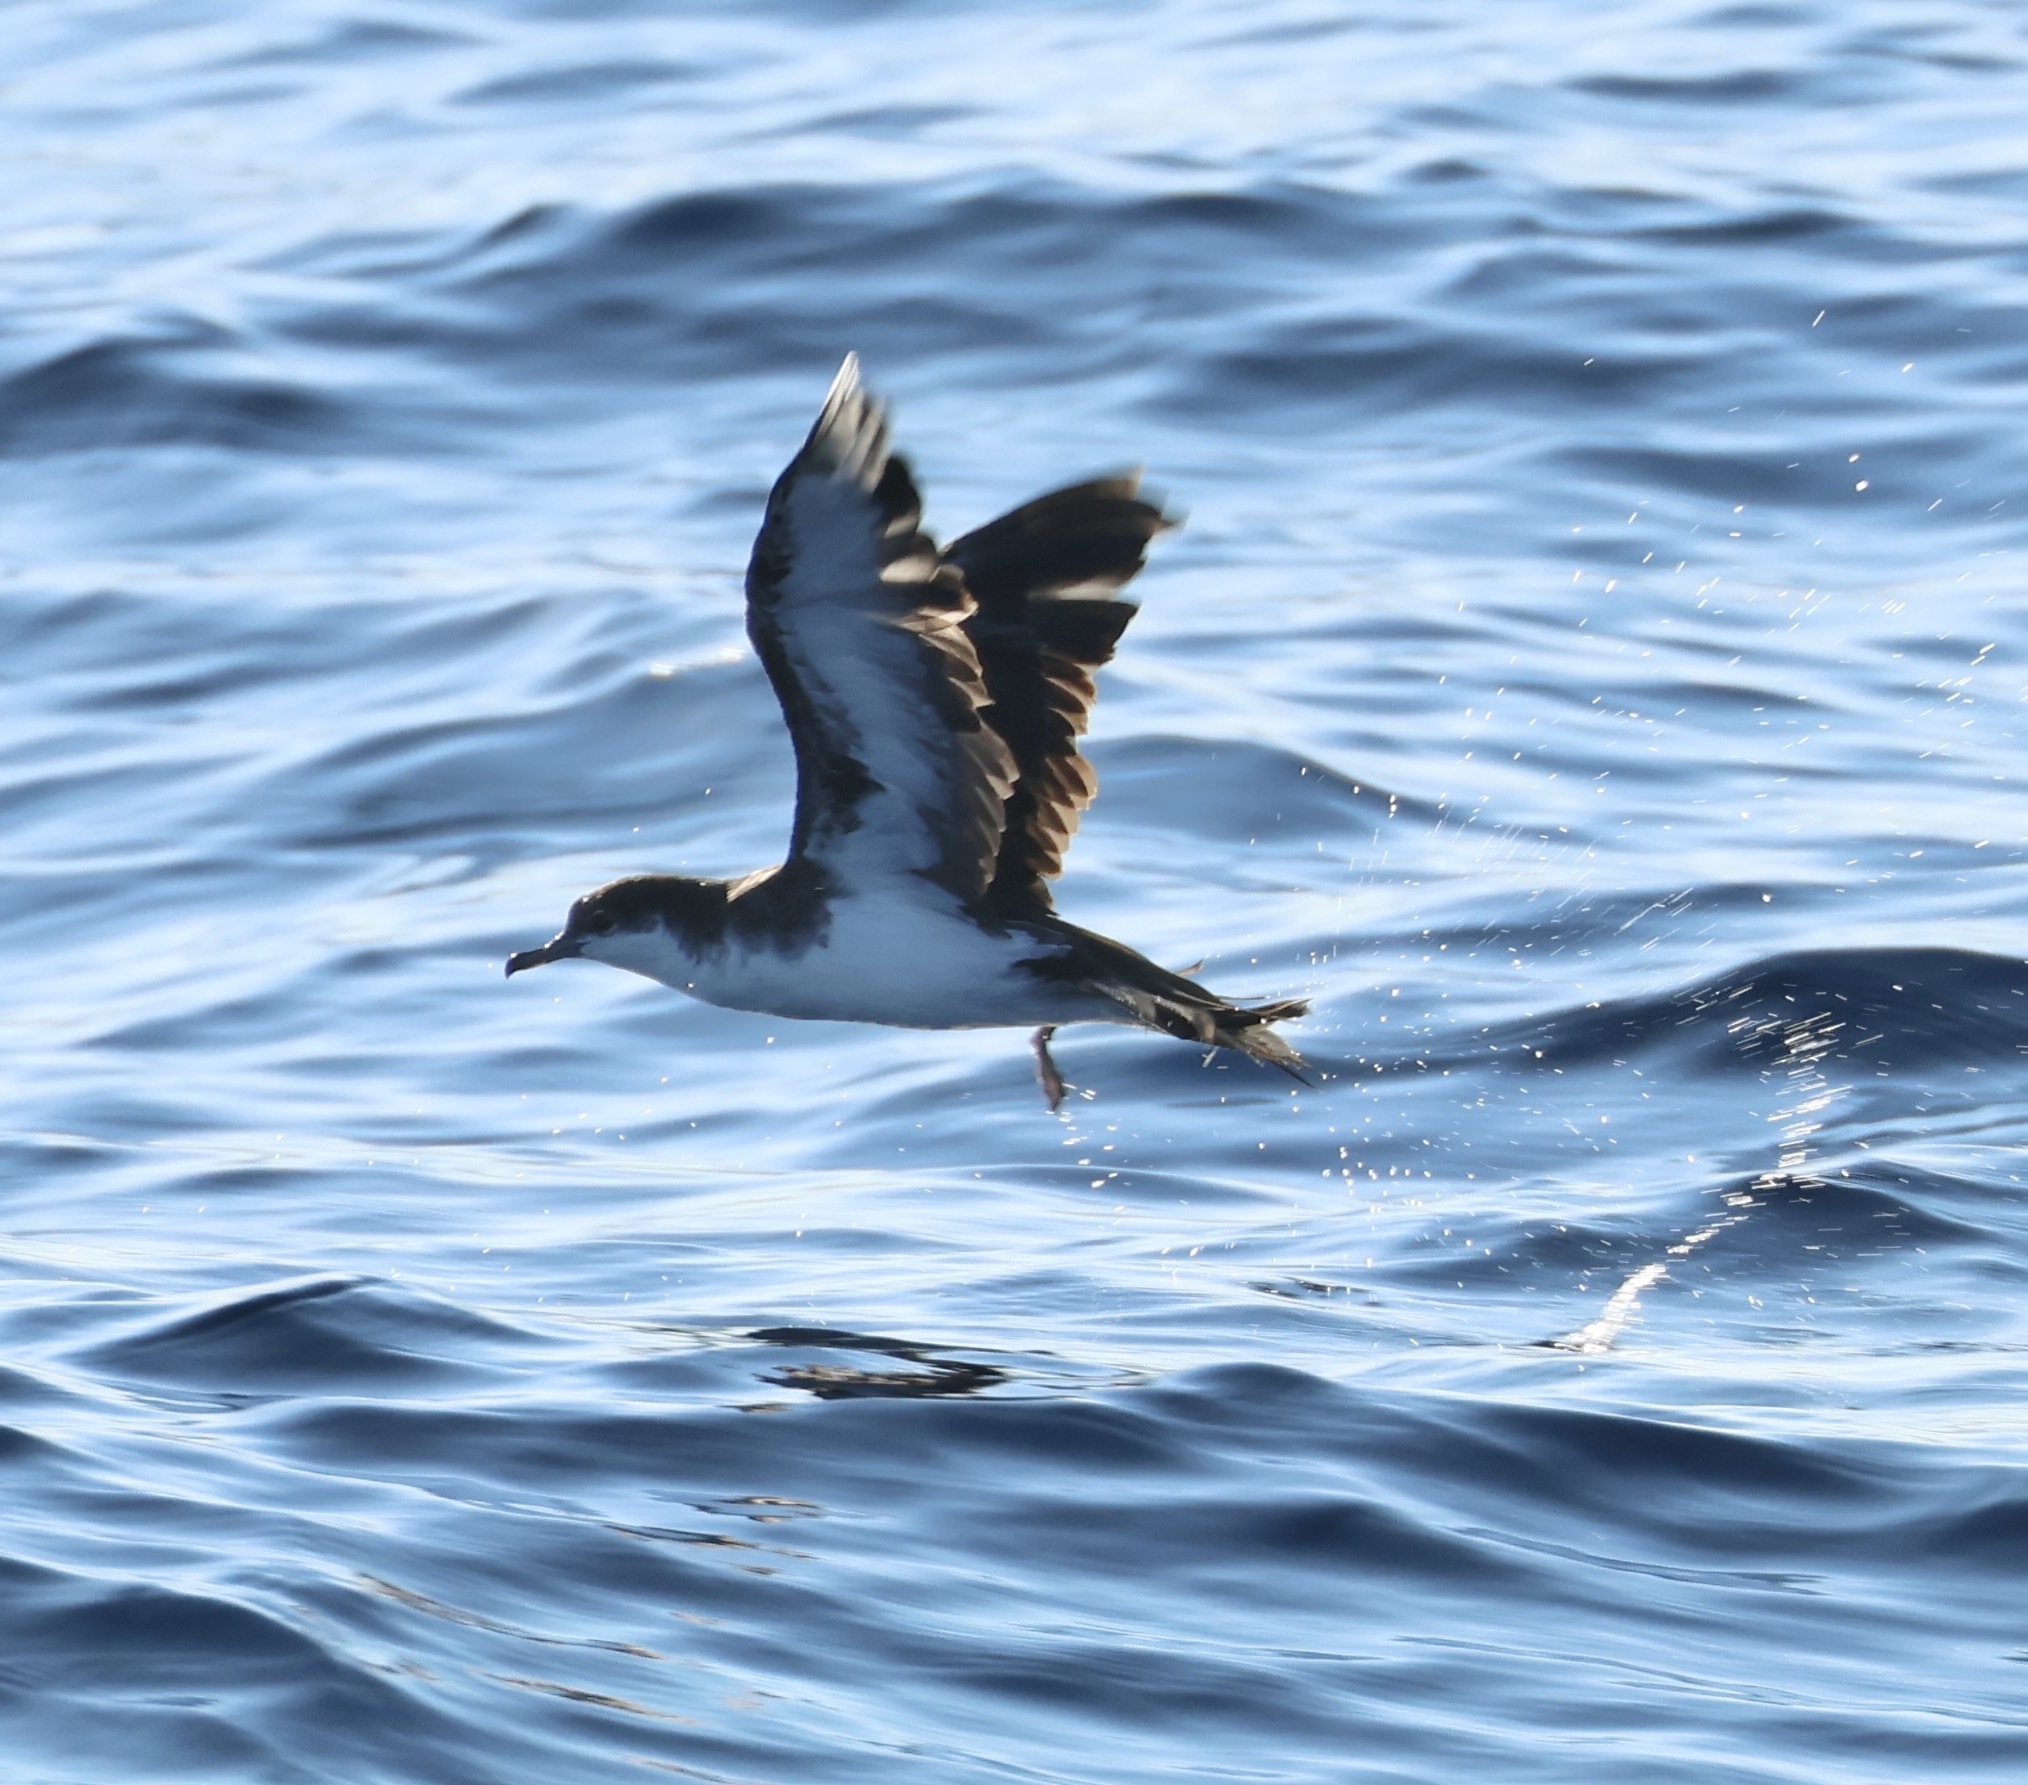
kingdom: Animalia
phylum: Chordata
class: Aves
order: Procellariiformes
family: Procellariidae
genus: Puffinus
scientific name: Puffinus lherminieri
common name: Audubon's shearwater
